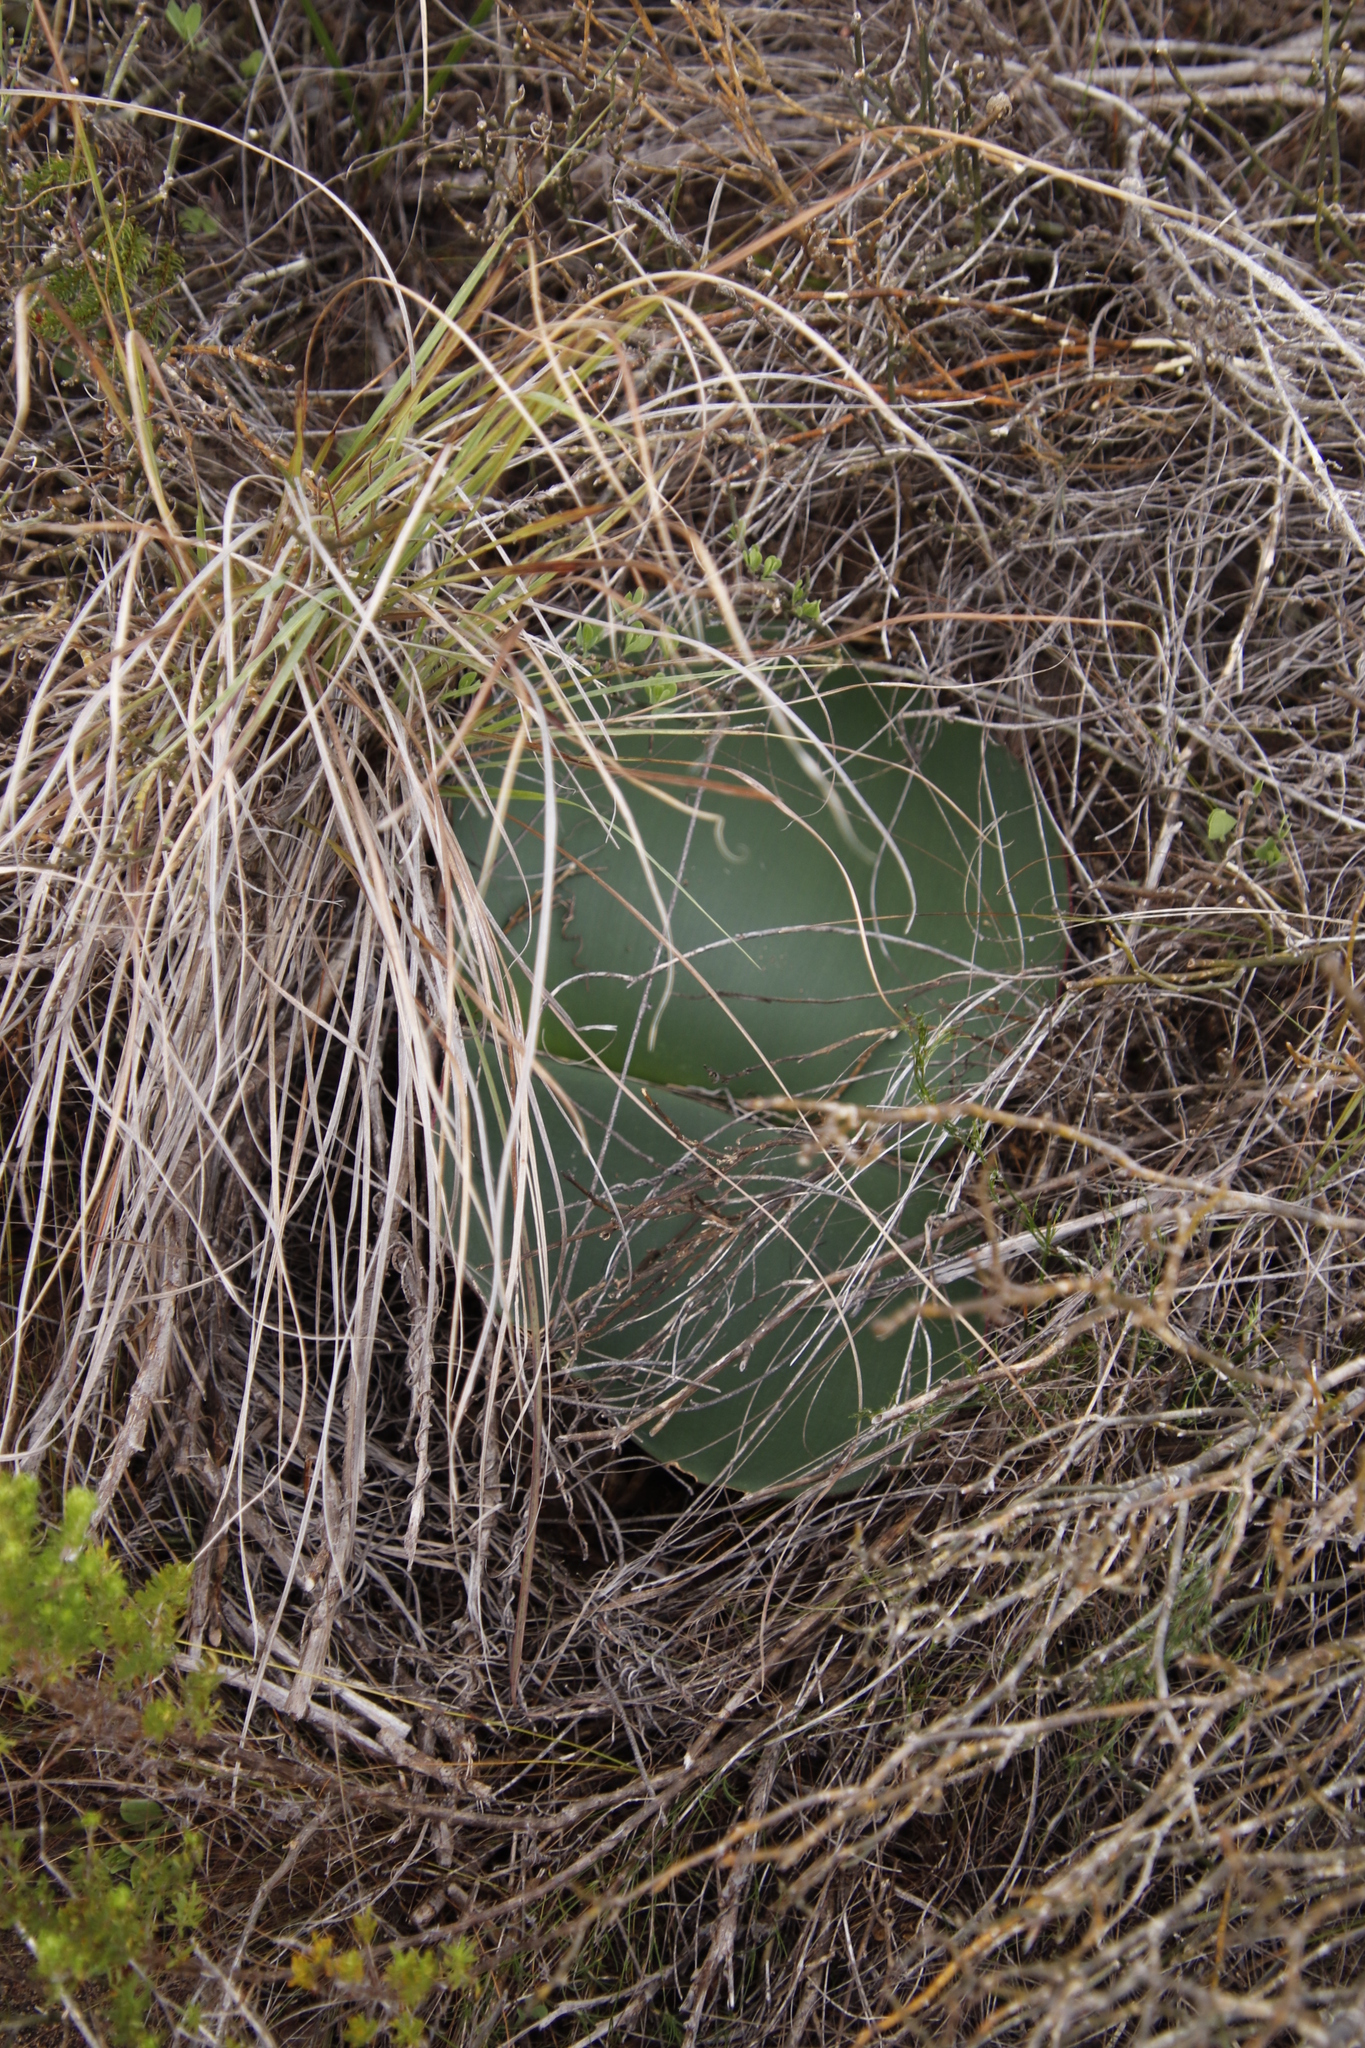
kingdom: Plantae
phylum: Tracheophyta
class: Liliopsida
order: Asparagales
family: Amaryllidaceae
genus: Haemanthus
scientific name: Haemanthus sanguineus
